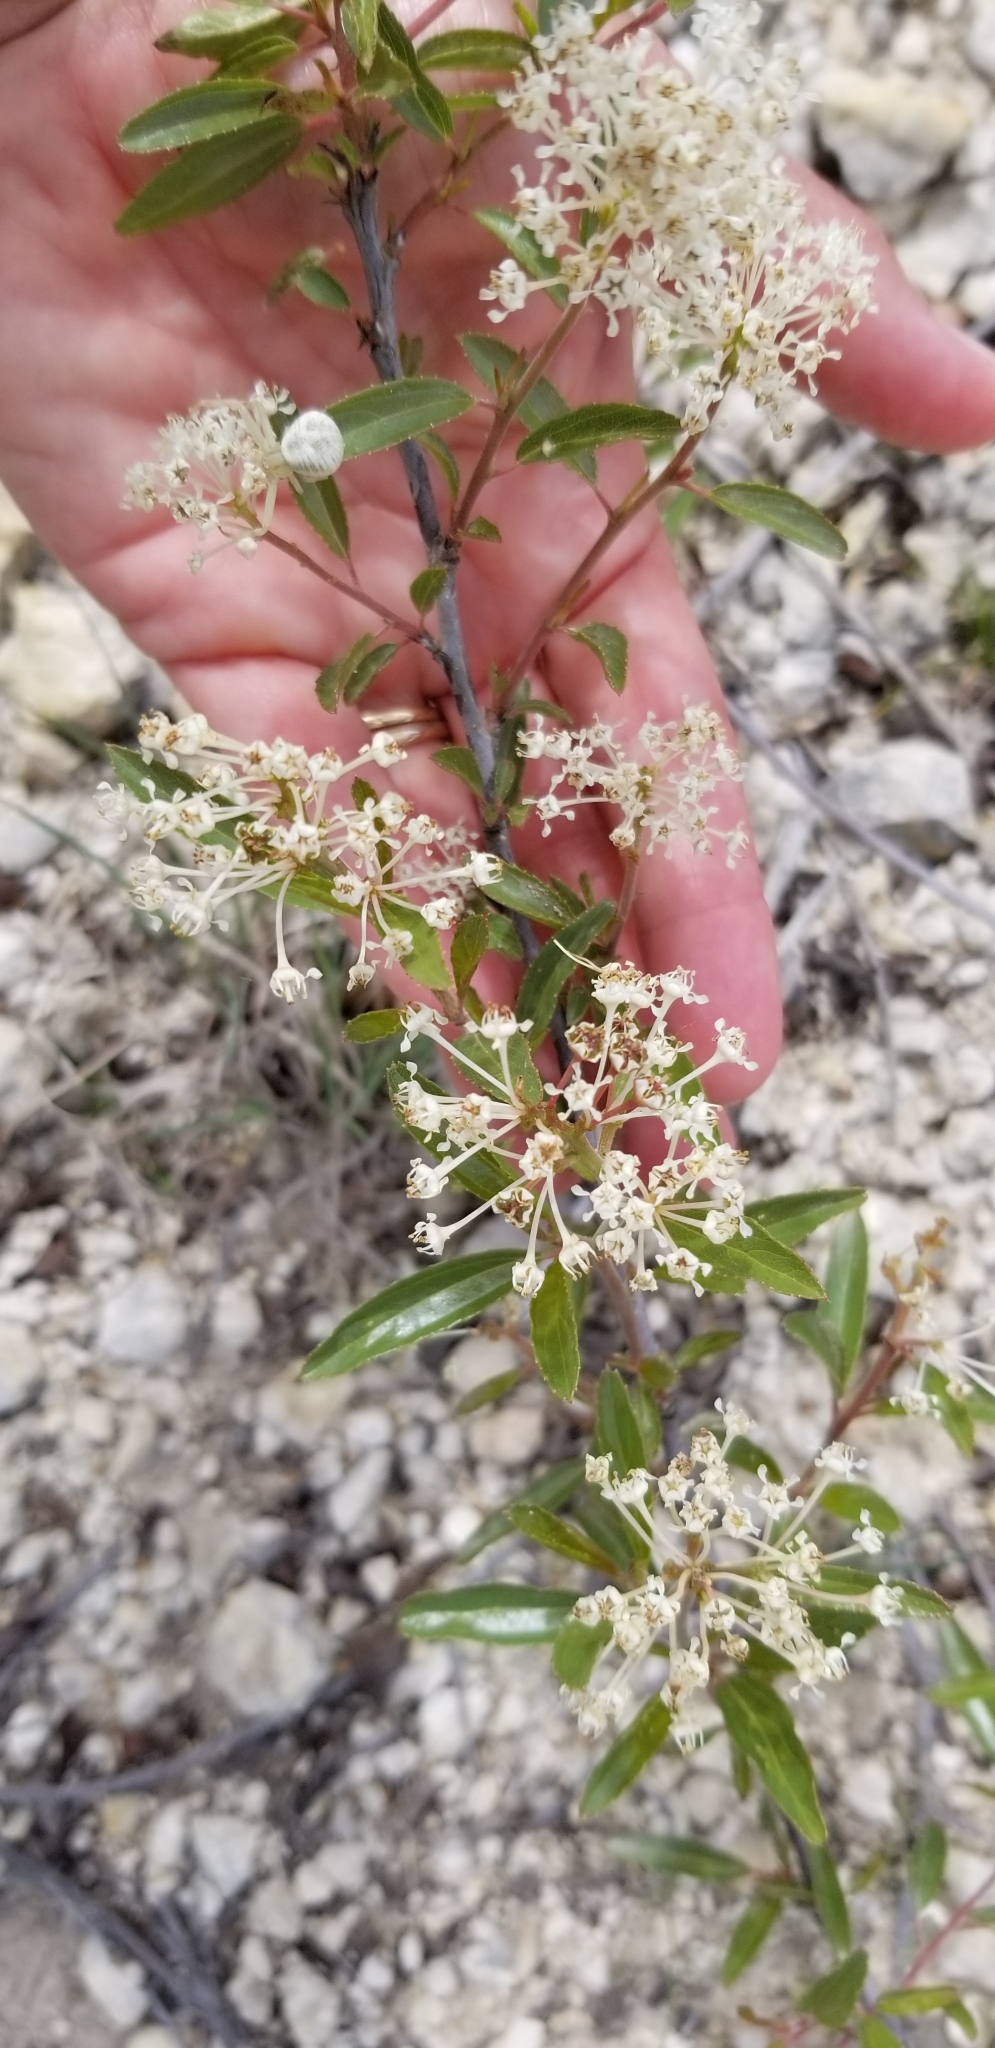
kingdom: Plantae
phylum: Tracheophyta
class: Magnoliopsida
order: Rosales
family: Rhamnaceae
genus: Ceanothus
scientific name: Ceanothus herbaceus
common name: Inland ceanothus
